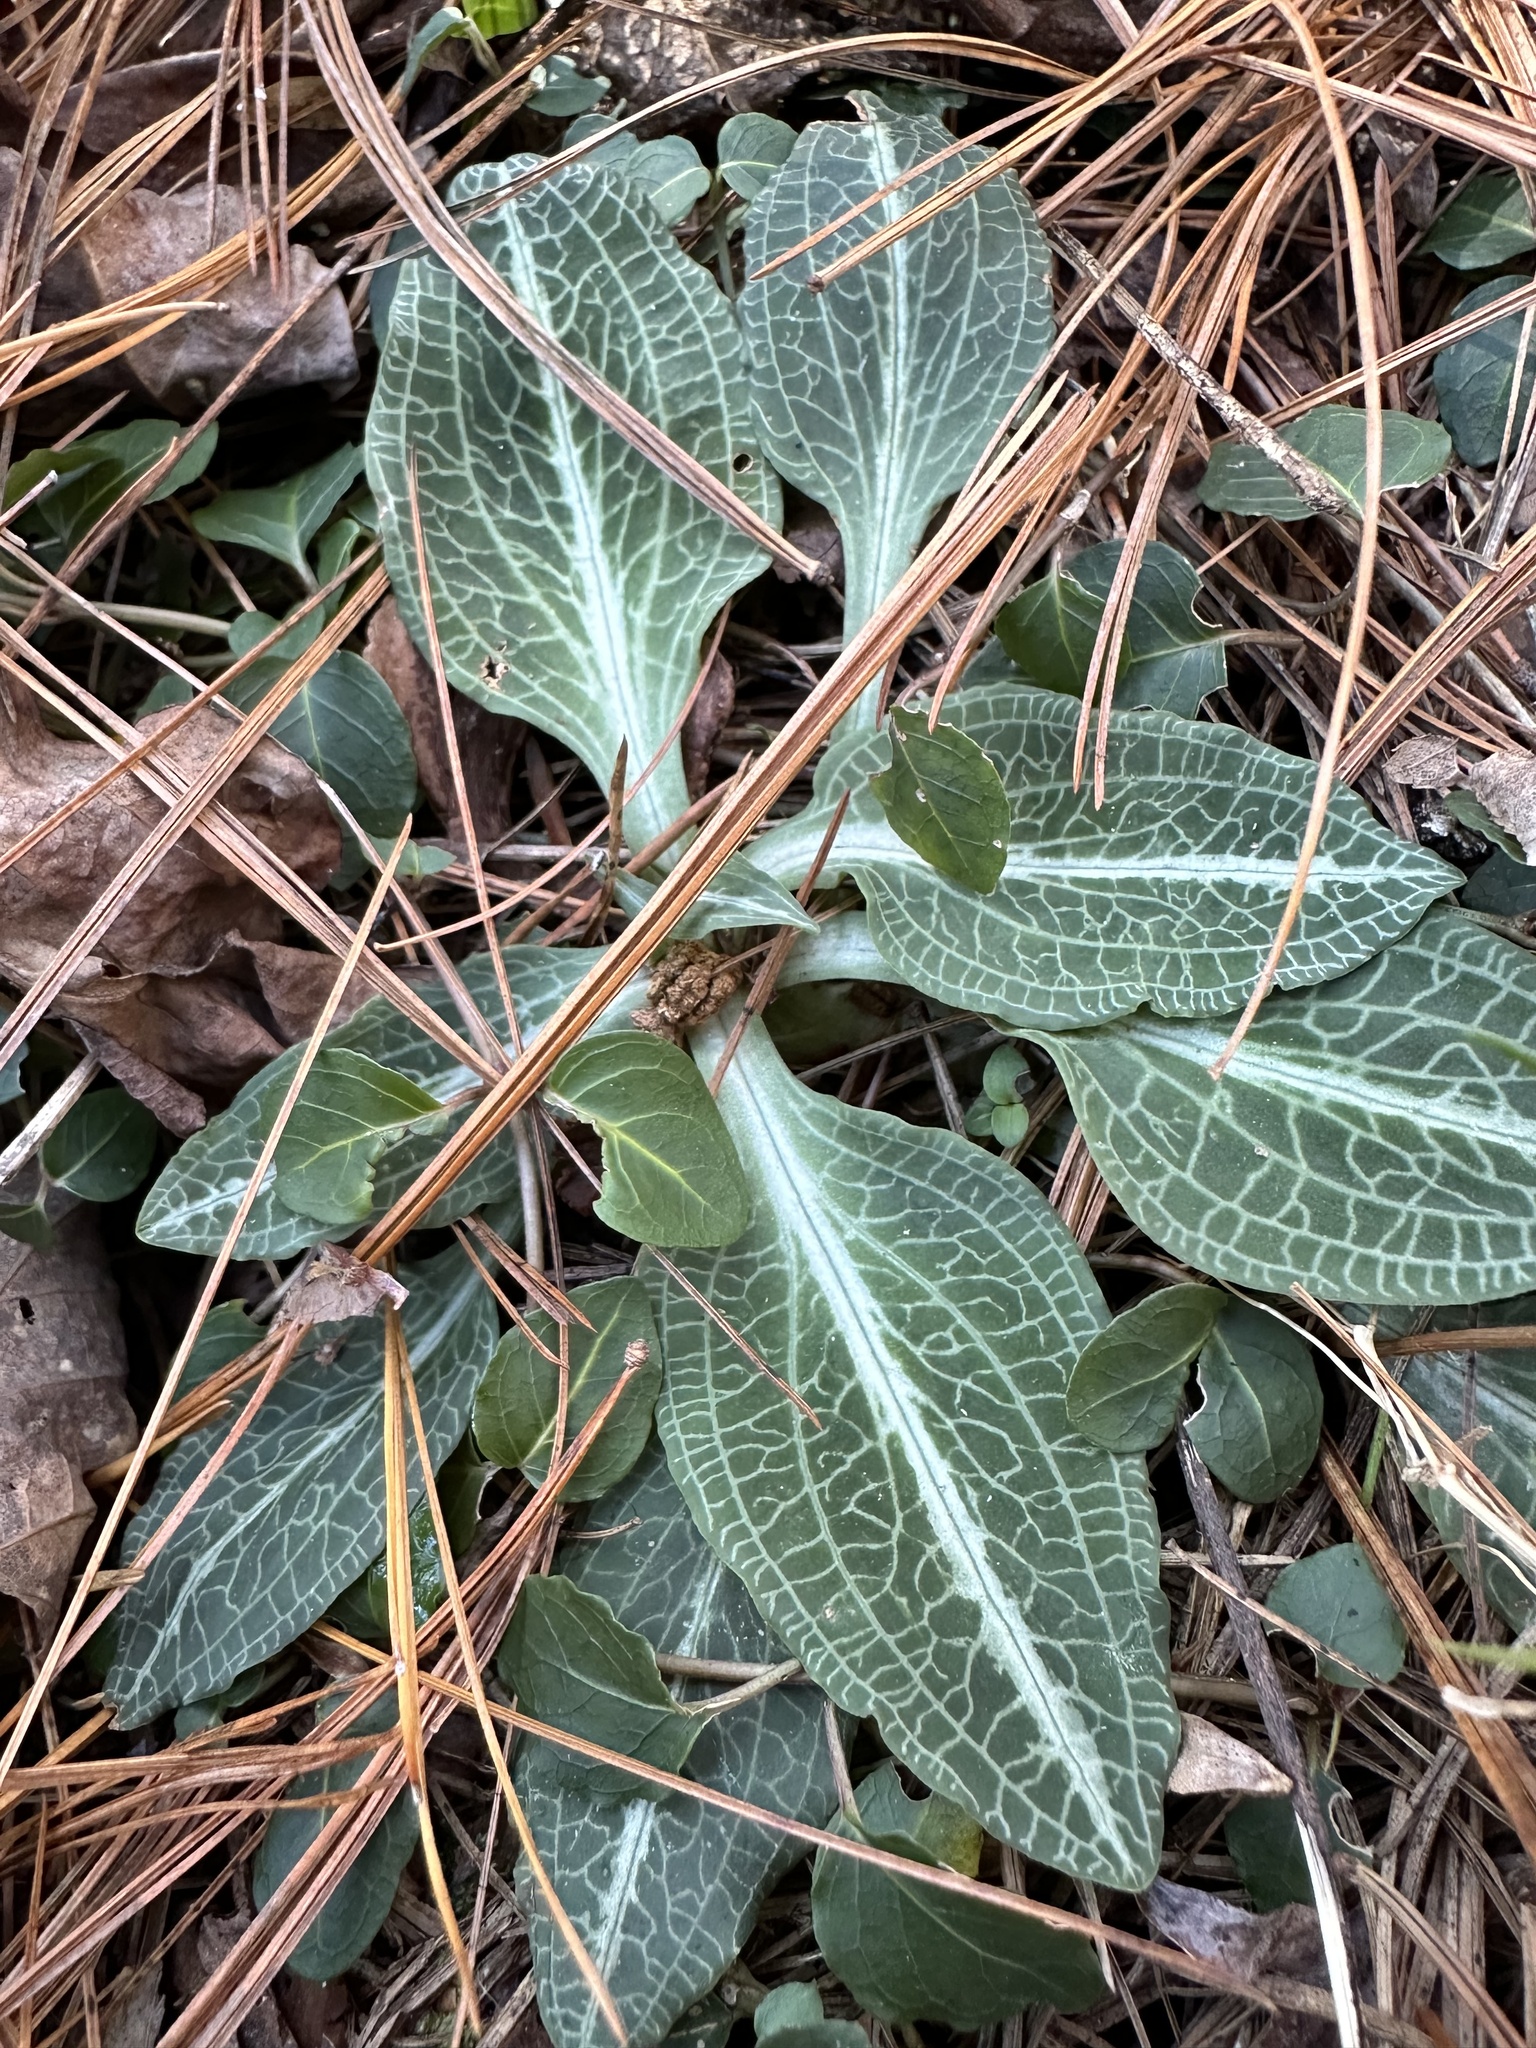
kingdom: Plantae
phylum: Tracheophyta
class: Liliopsida
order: Asparagales
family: Orchidaceae
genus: Goodyera
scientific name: Goodyera pubescens
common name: Downy rattlesnake-plantain
